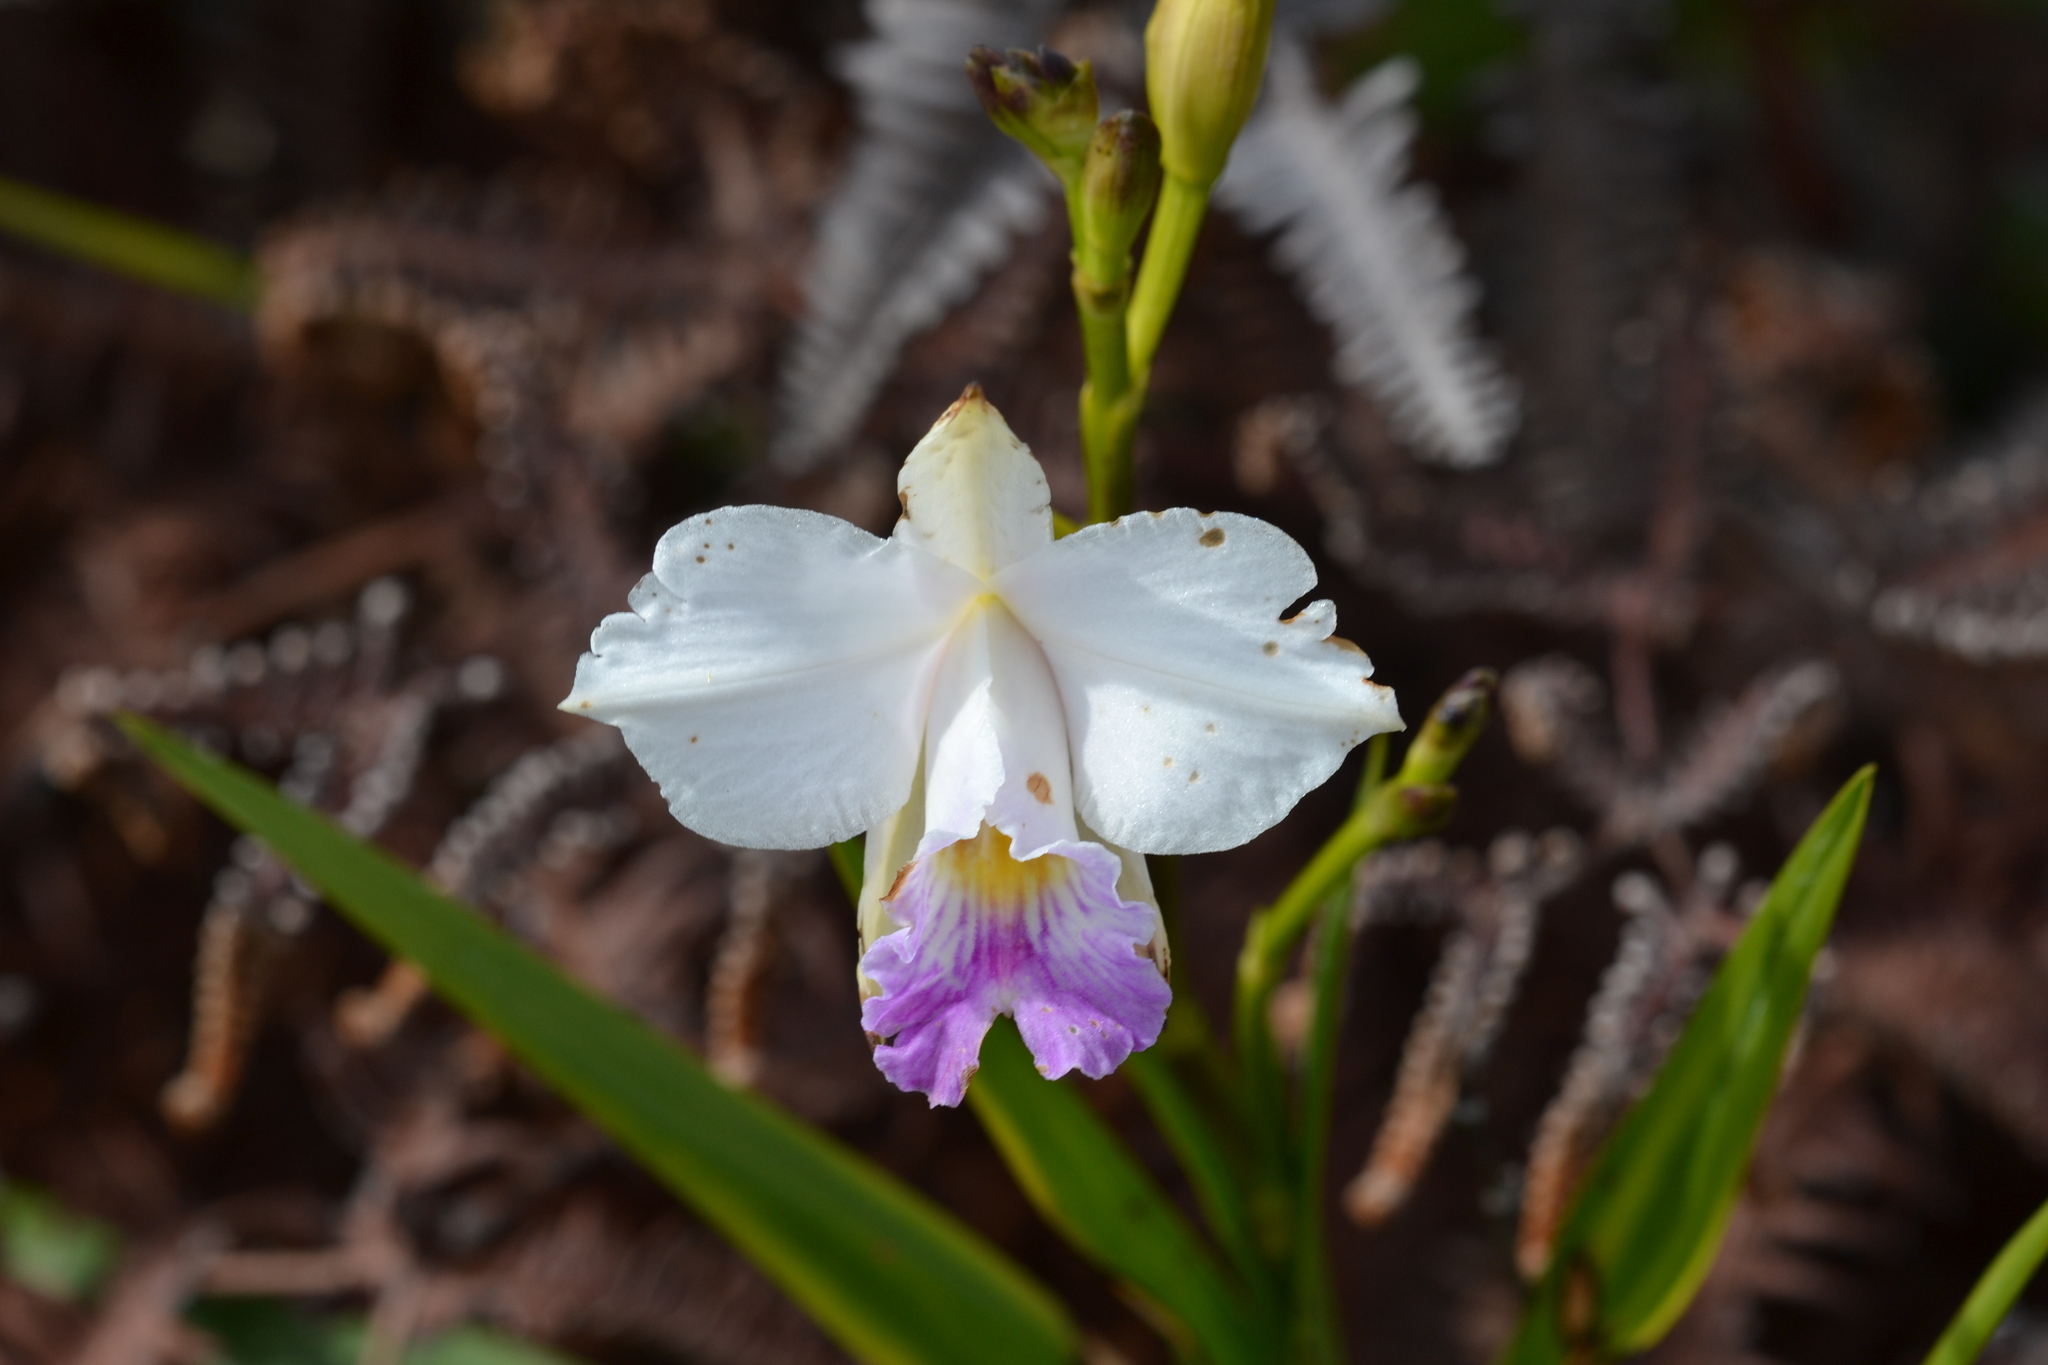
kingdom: Plantae
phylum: Tracheophyta
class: Liliopsida
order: Asparagales
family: Orchidaceae
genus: Arundina
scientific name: Arundina graminifolia
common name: Bamboo orchid
